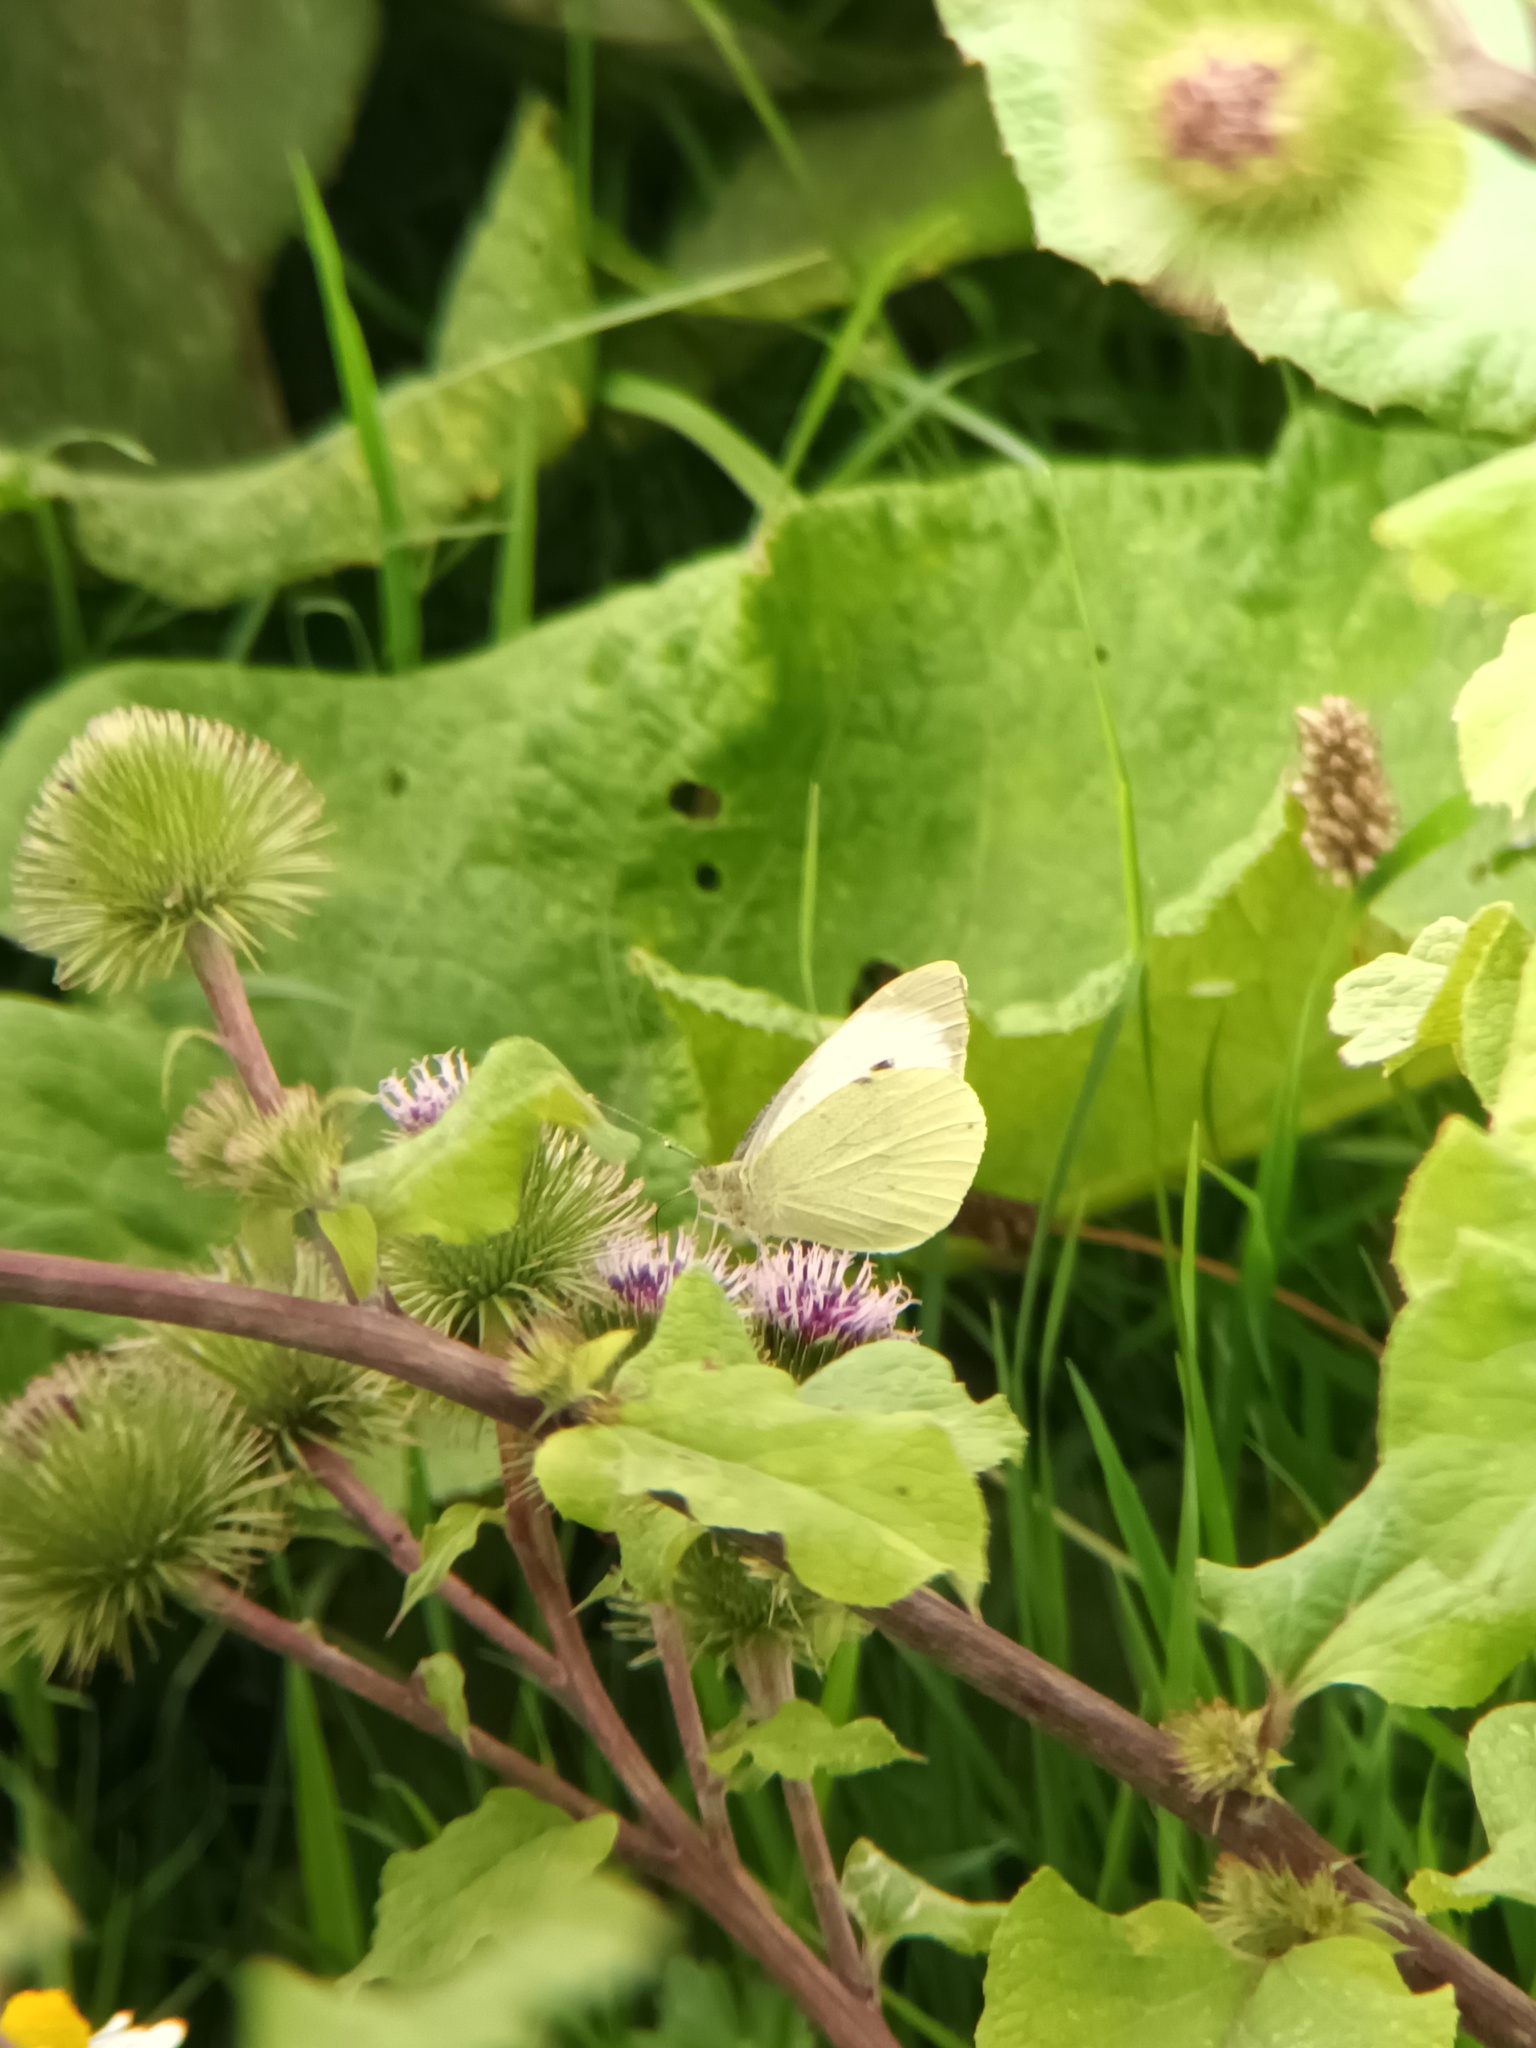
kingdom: Animalia
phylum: Arthropoda
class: Insecta
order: Lepidoptera
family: Pieridae
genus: Pieris
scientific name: Pieris brassicae
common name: Large white
